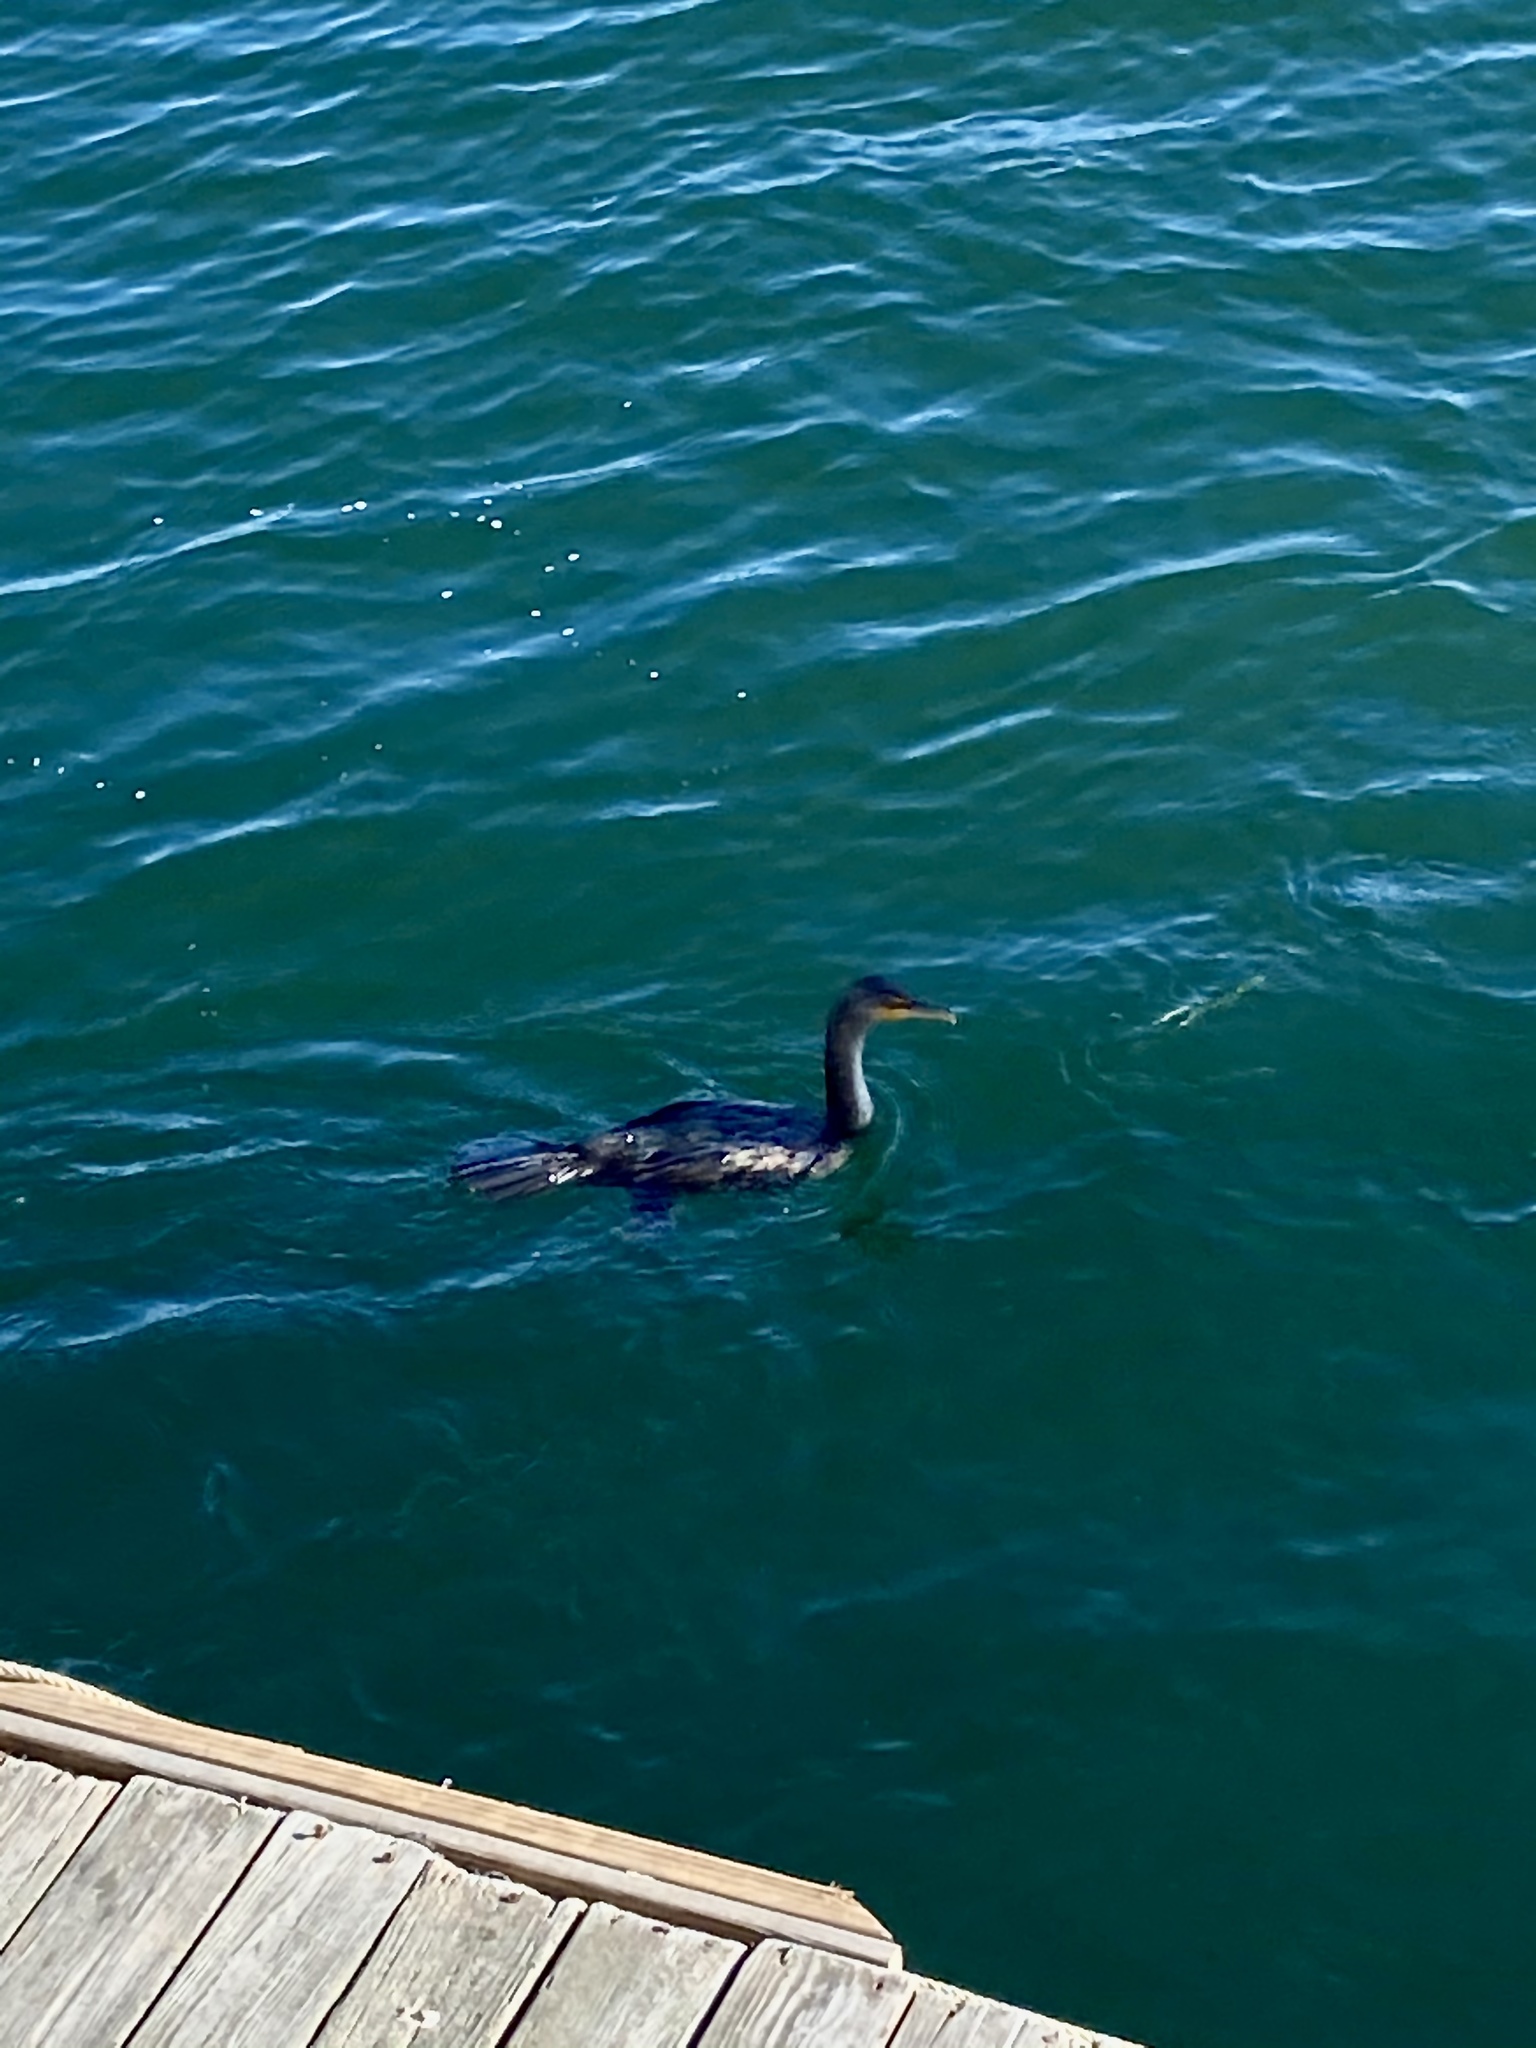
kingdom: Animalia
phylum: Chordata
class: Aves
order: Suliformes
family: Phalacrocoracidae
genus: Phalacrocorax
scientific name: Phalacrocorax auritus
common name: Double-crested cormorant
